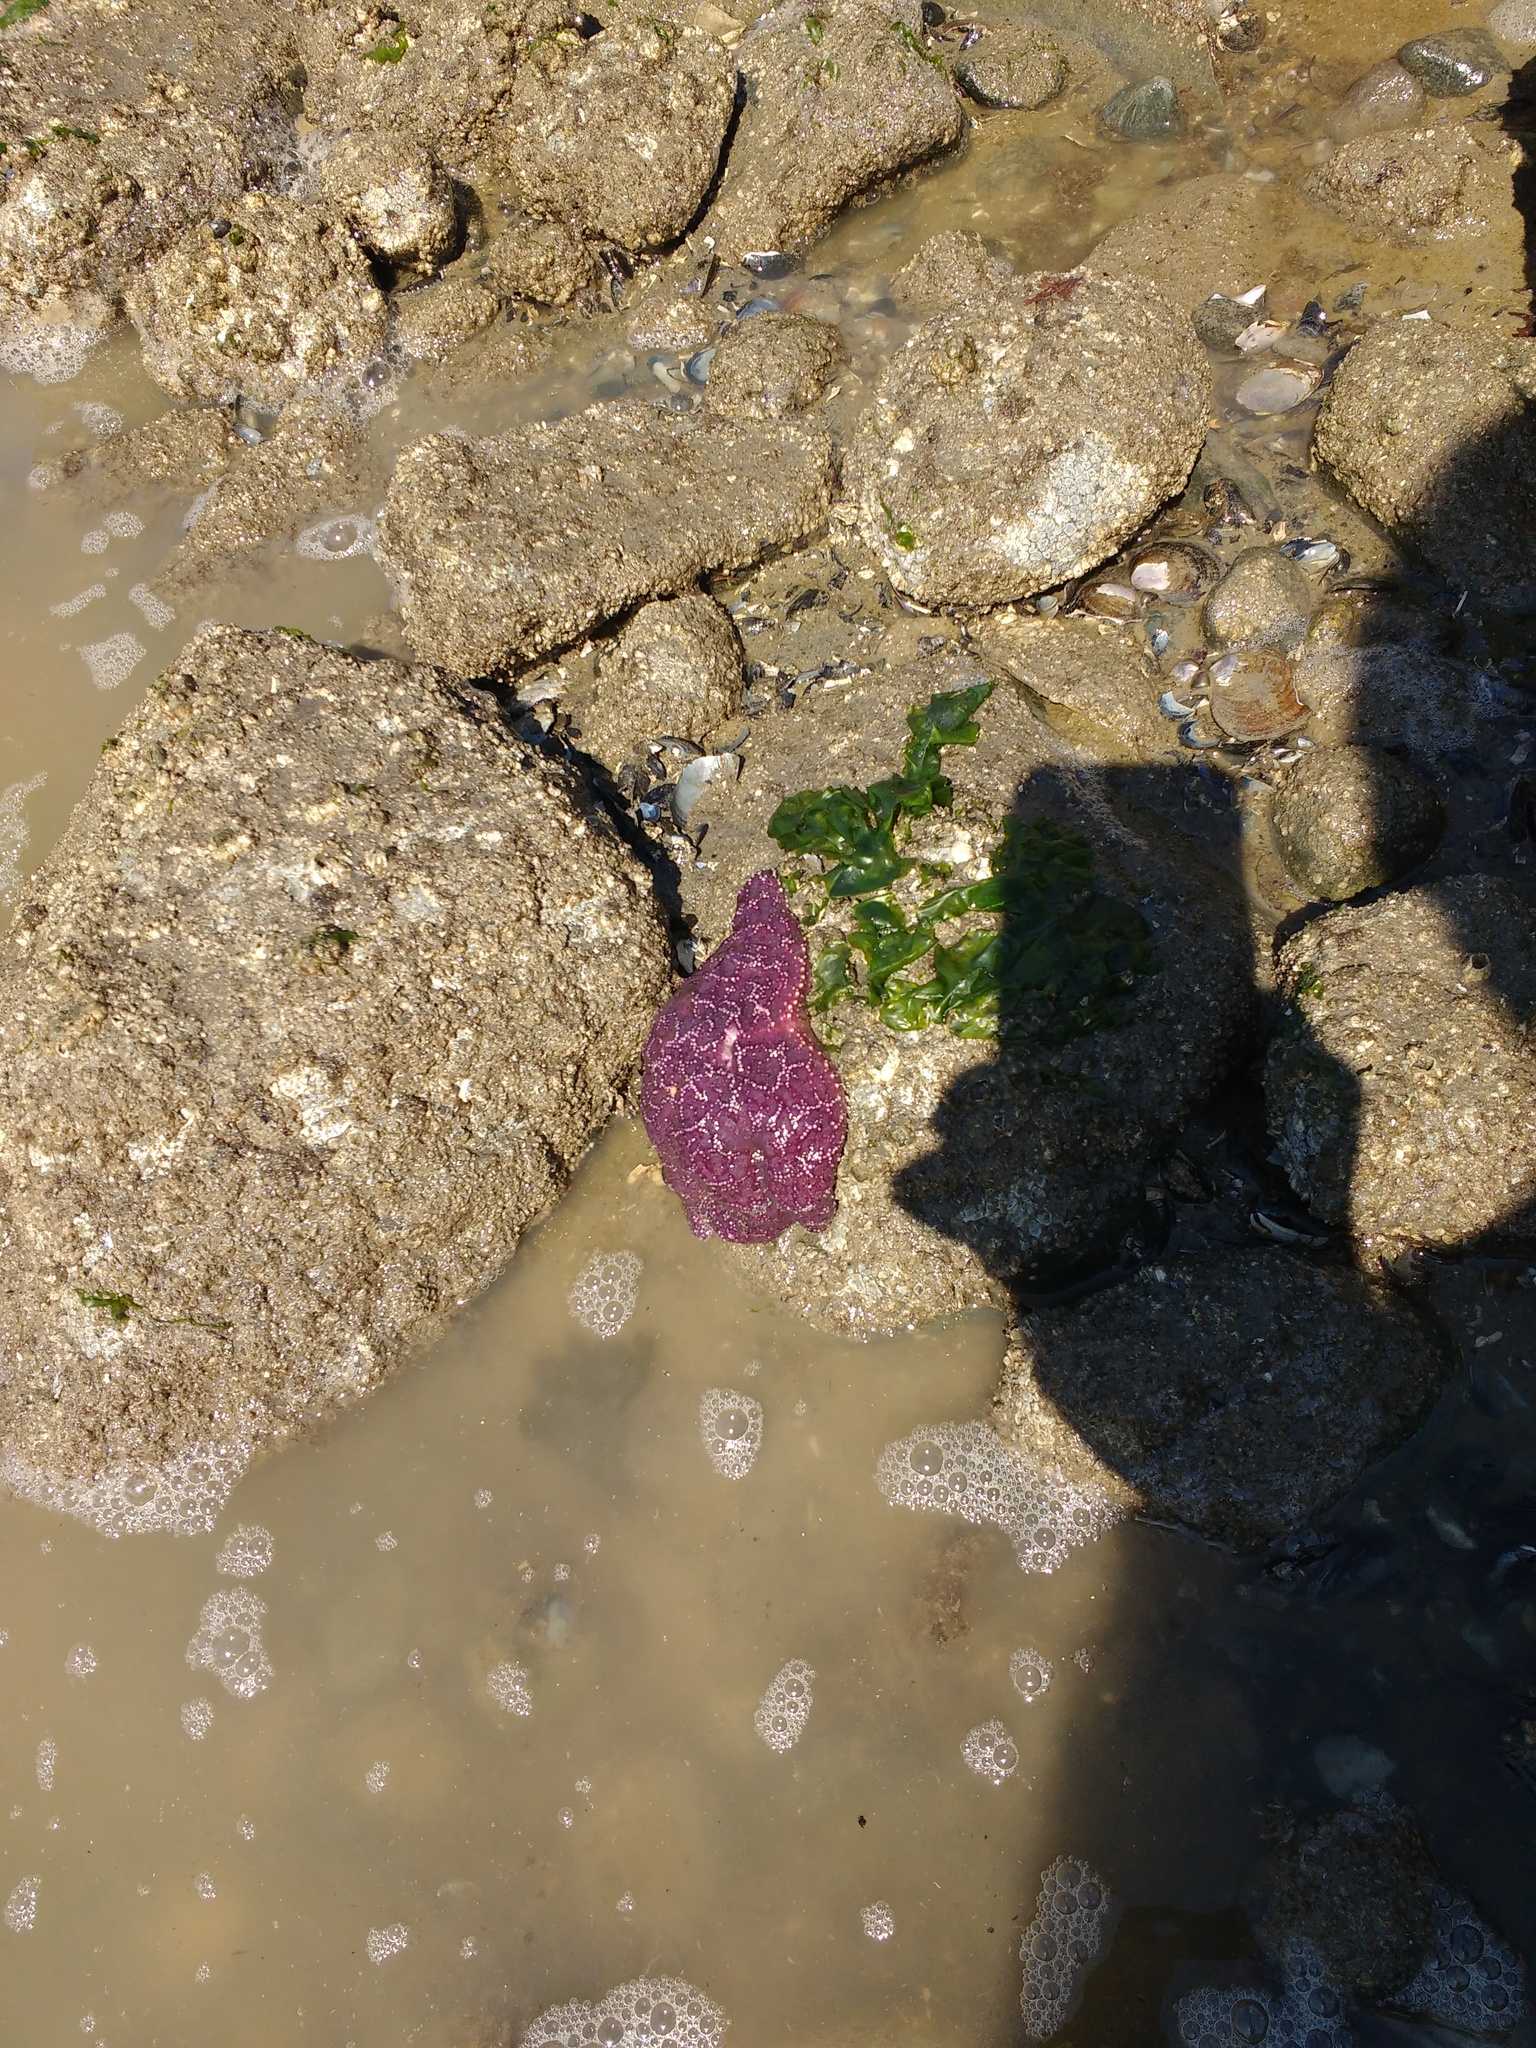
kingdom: Animalia
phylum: Echinodermata
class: Asteroidea
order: Forcipulatida
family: Asteriidae
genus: Pisaster
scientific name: Pisaster ochraceus
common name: Ochre stars
